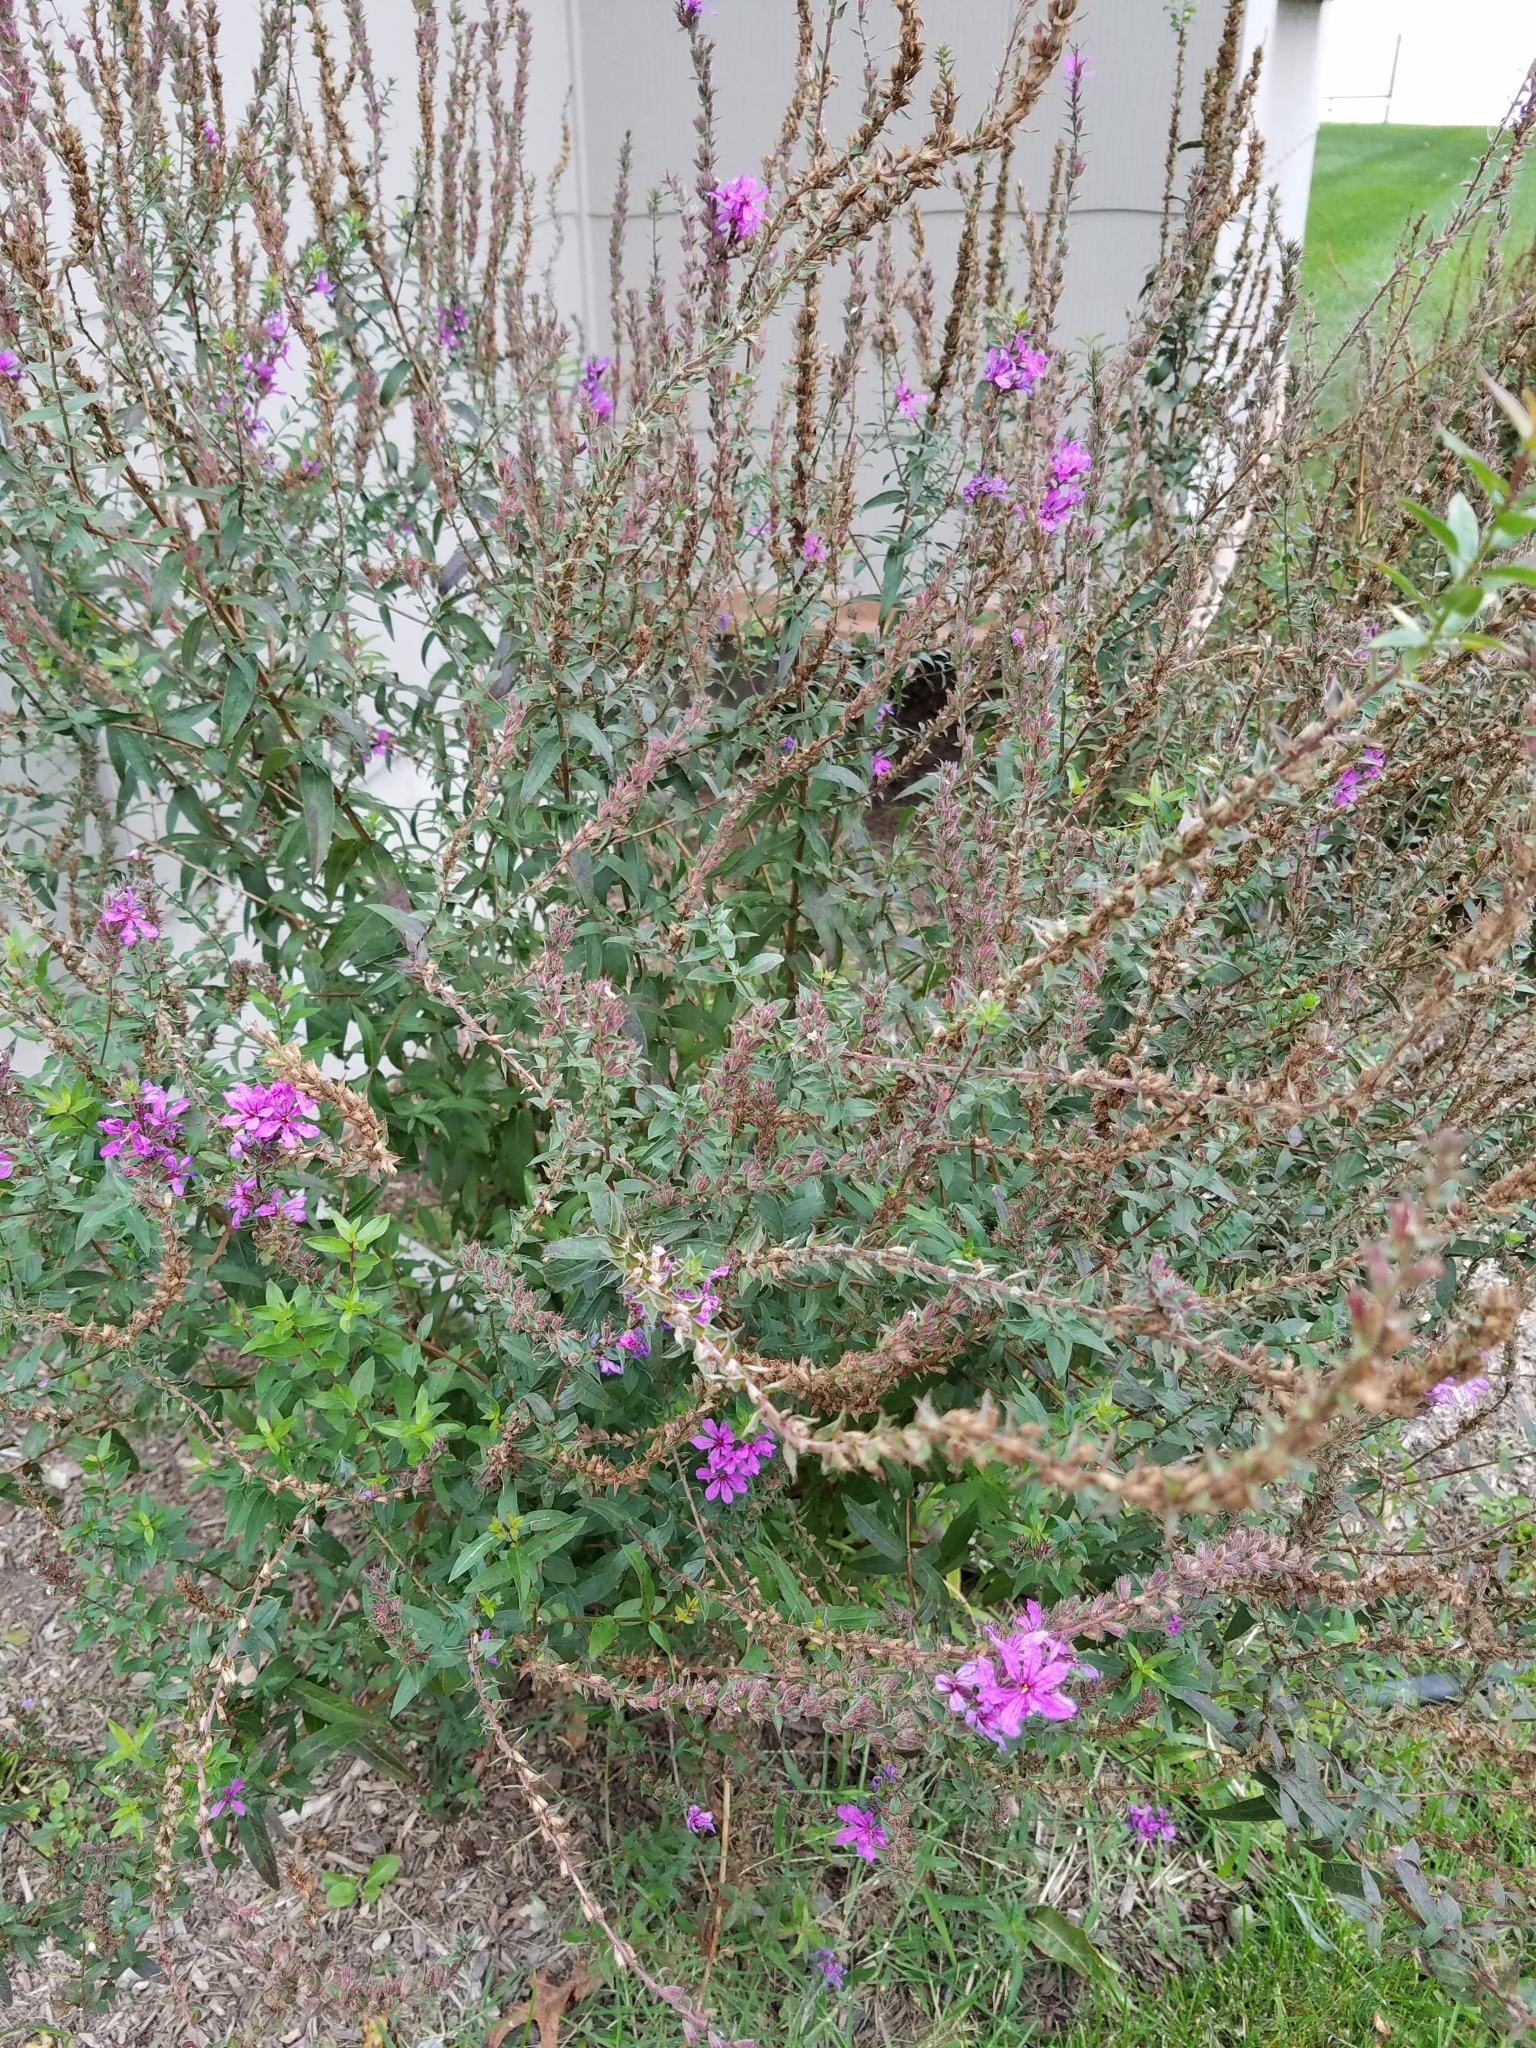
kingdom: Plantae
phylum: Tracheophyta
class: Magnoliopsida
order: Myrtales
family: Lythraceae
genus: Lythrum
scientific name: Lythrum salicaria
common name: Purple loosestrife
